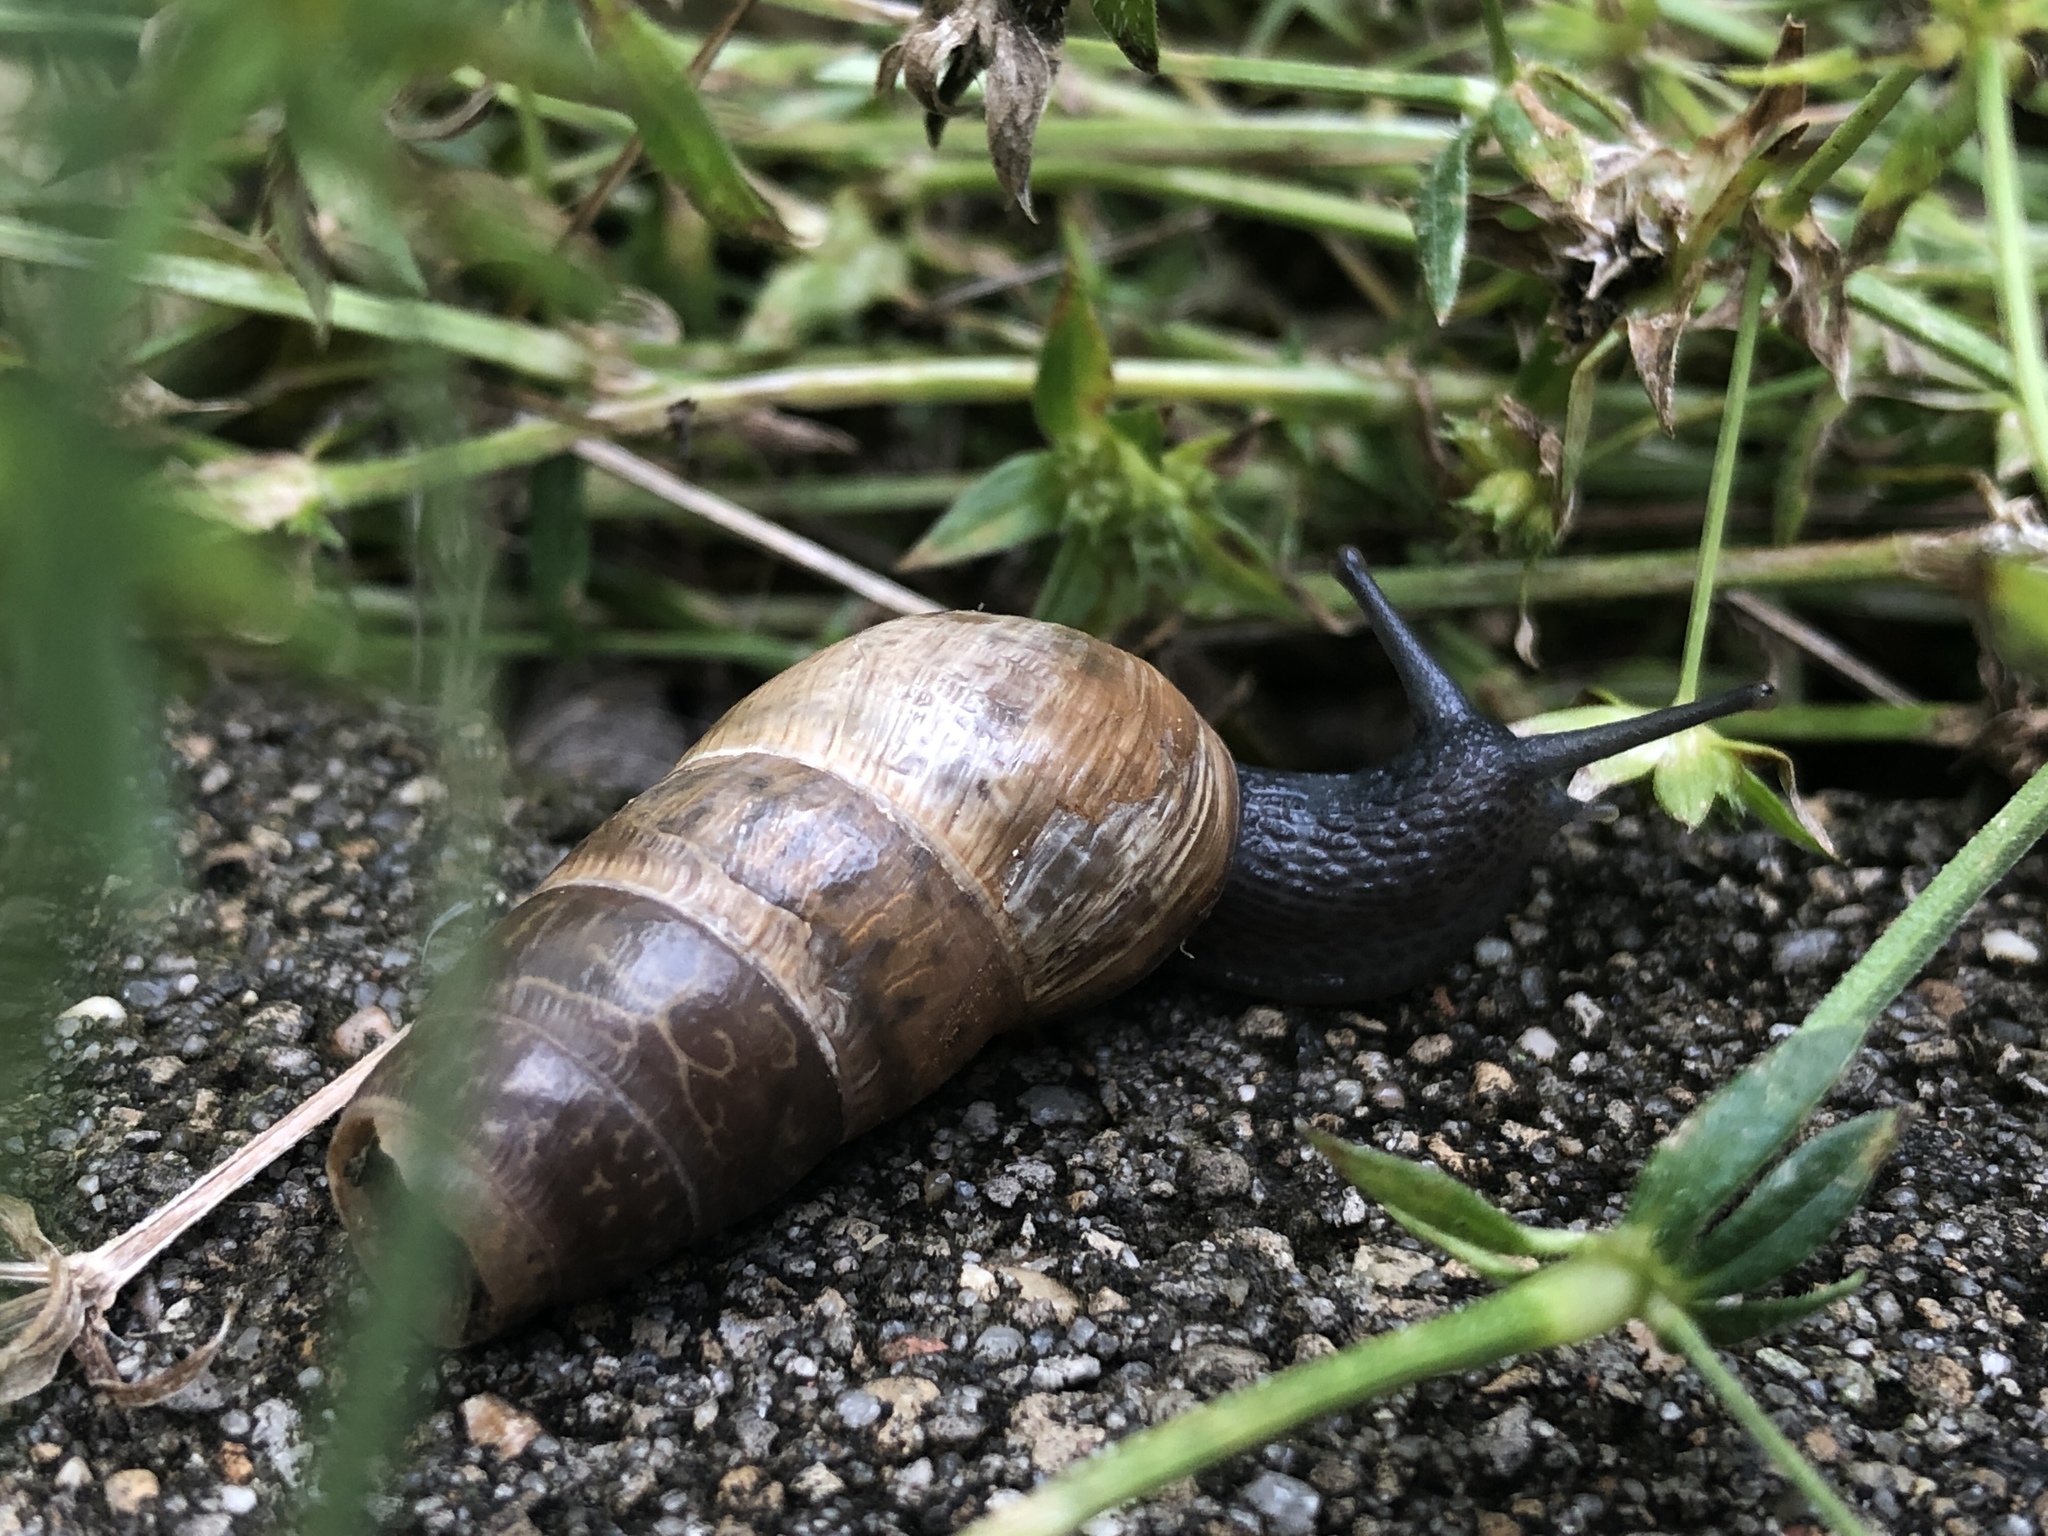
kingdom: Animalia
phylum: Mollusca
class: Gastropoda
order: Stylommatophora
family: Achatinidae
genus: Rumina
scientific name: Rumina decollata
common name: Decollate snail
